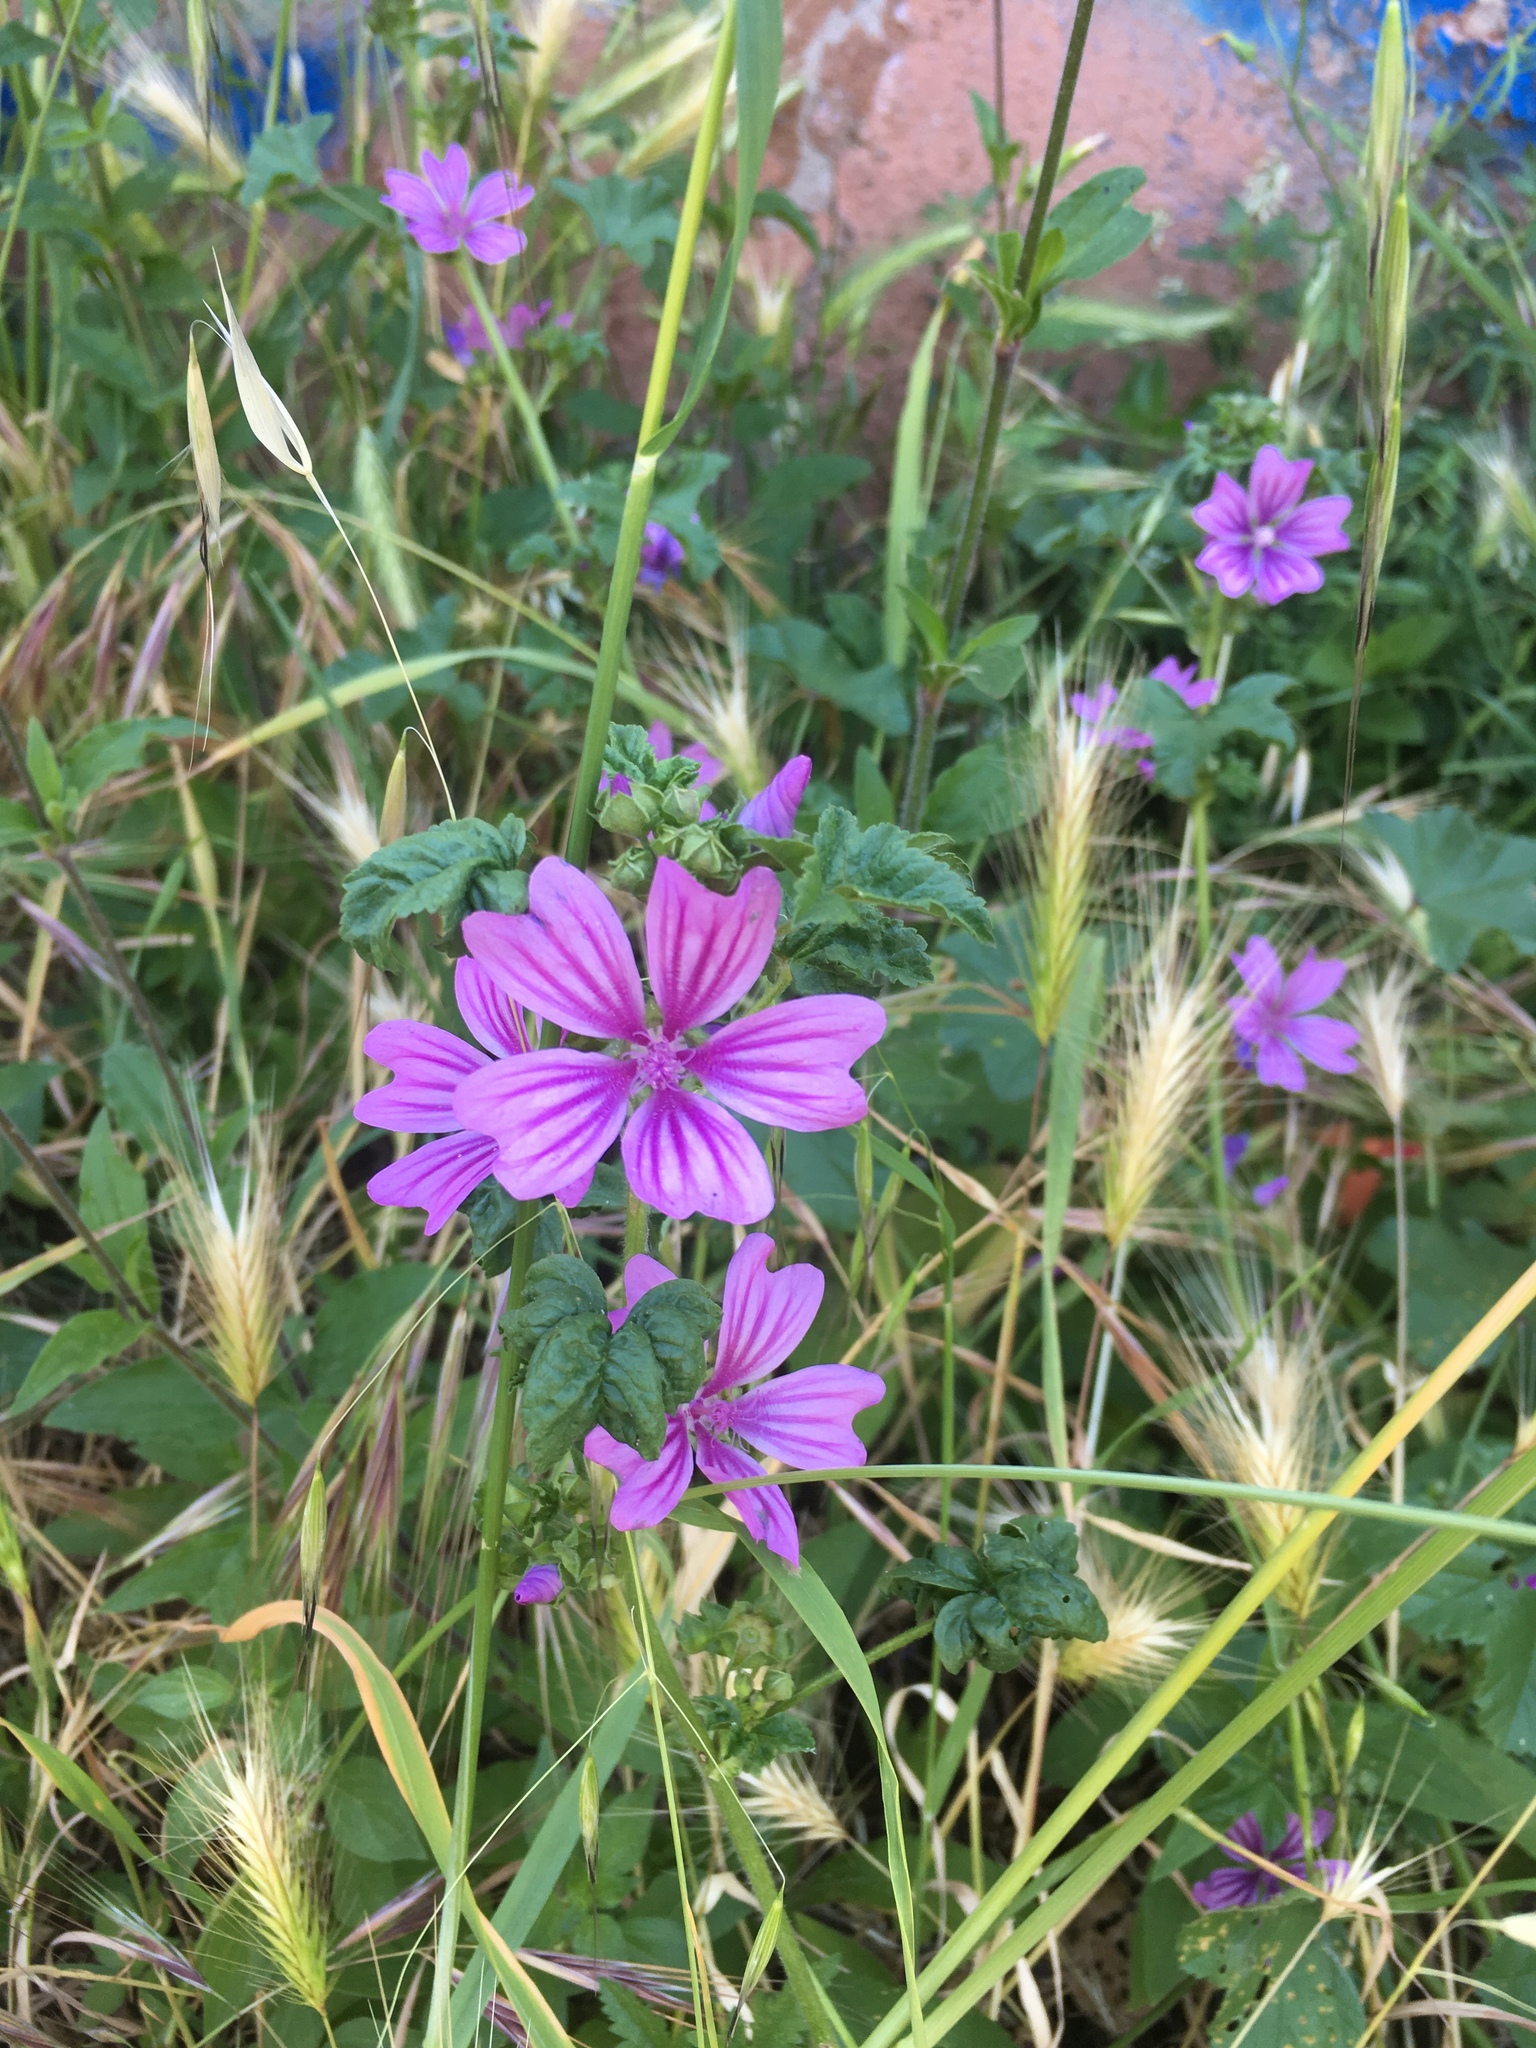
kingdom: Plantae
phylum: Tracheophyta
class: Magnoliopsida
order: Malvales
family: Malvaceae
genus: Malva
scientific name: Malva sylvestris
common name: Common mallow
